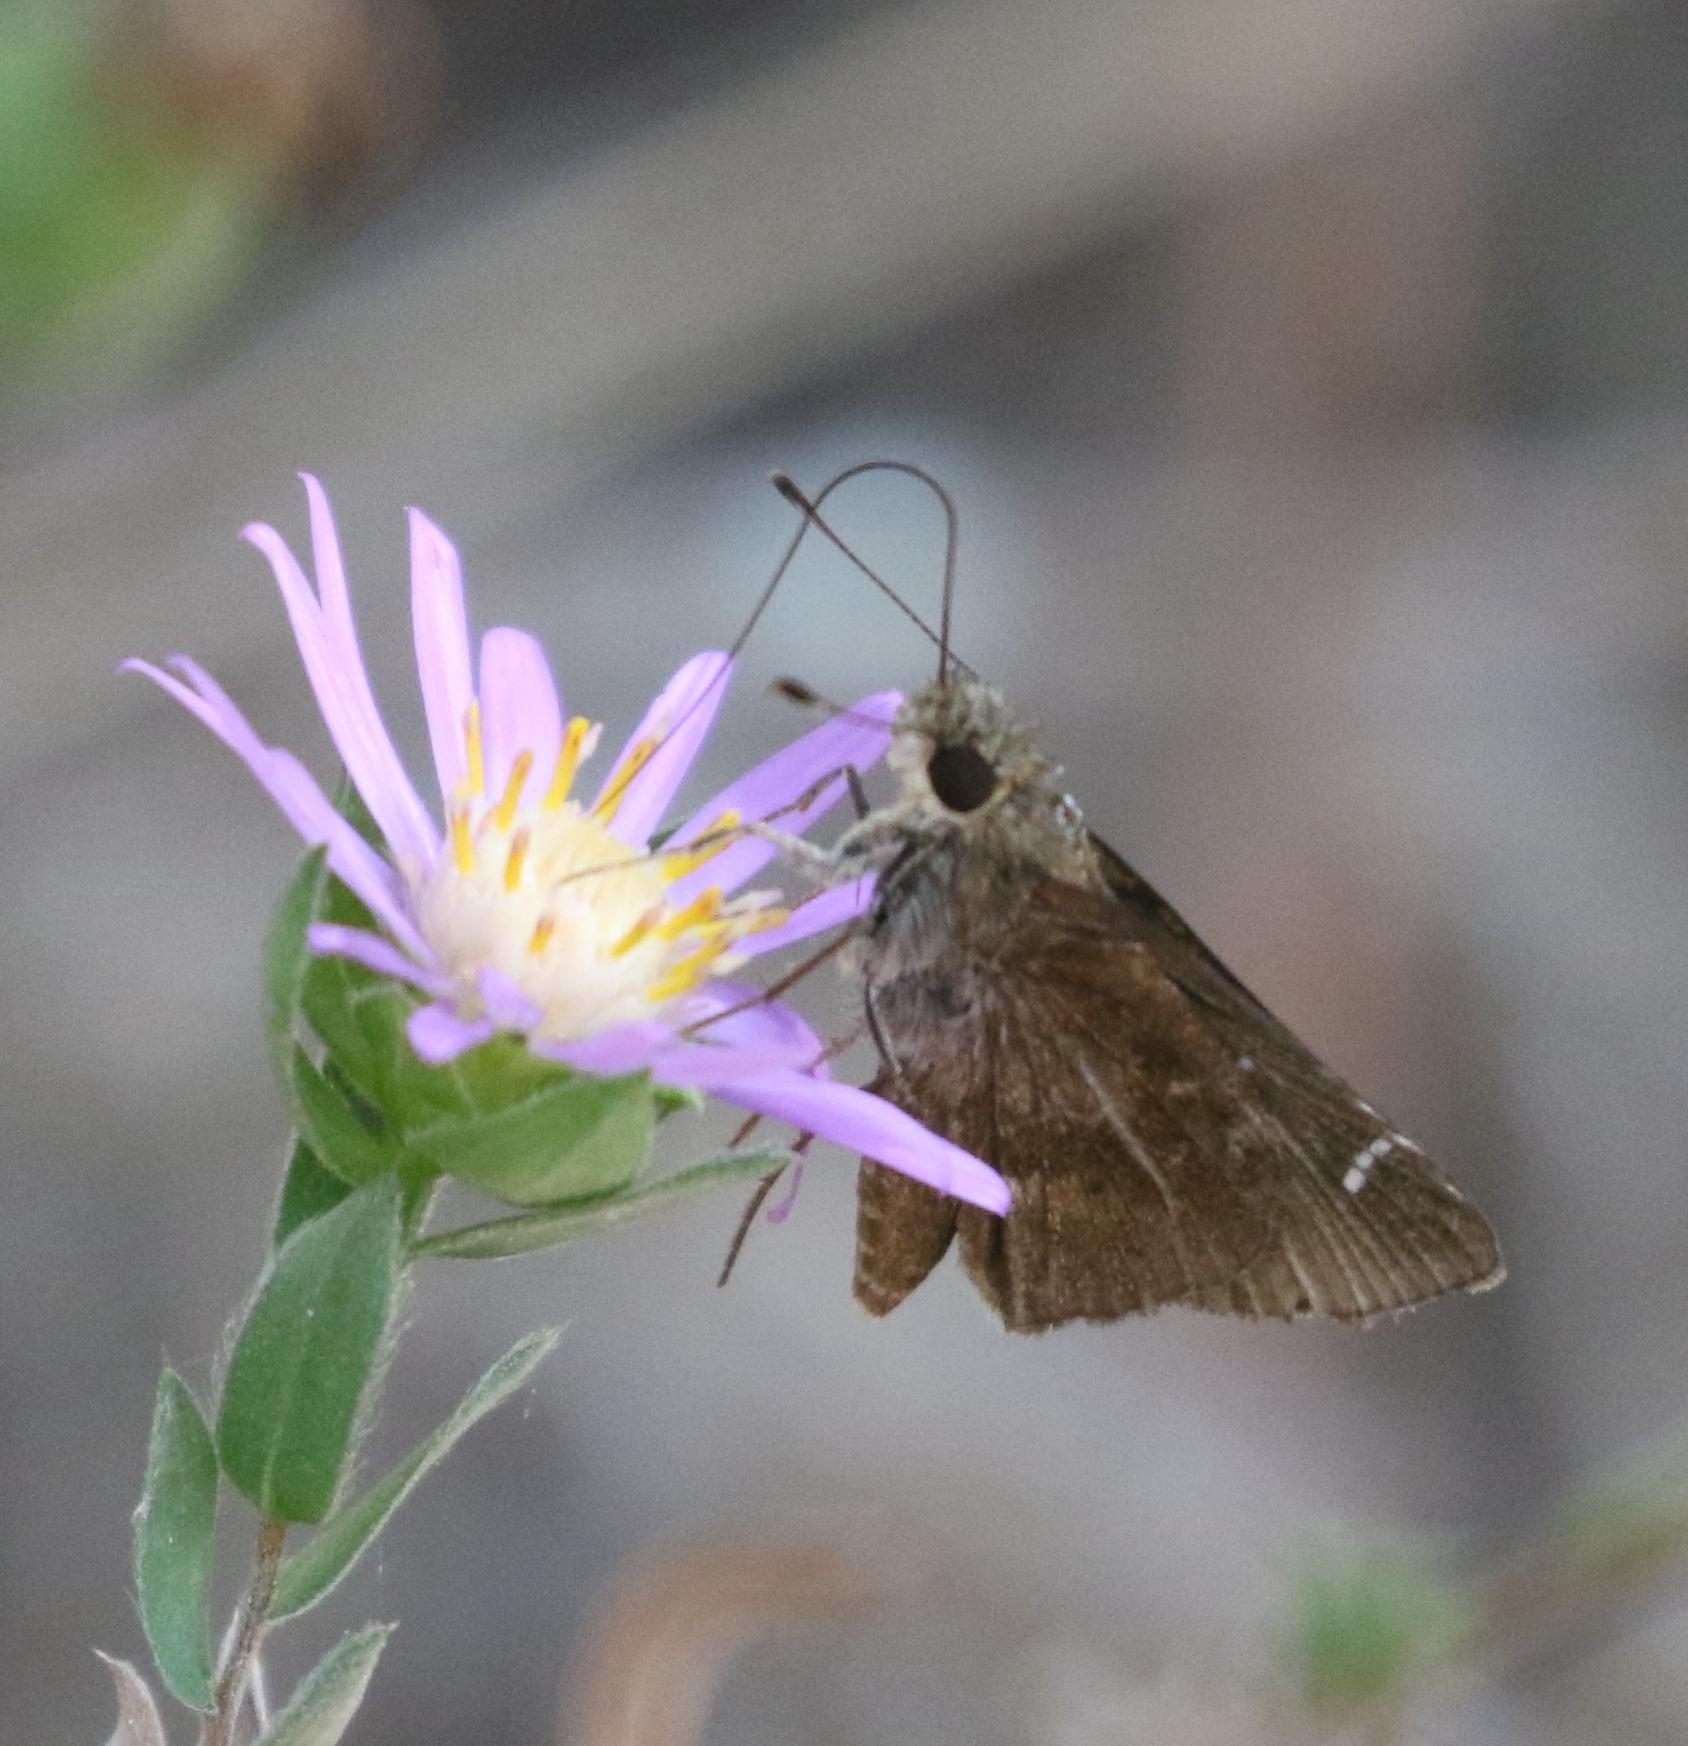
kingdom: Animalia
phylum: Arthropoda
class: Insecta
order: Lepidoptera
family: Hesperiidae
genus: Lerema
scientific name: Lerema accius
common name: Clouded skipper
